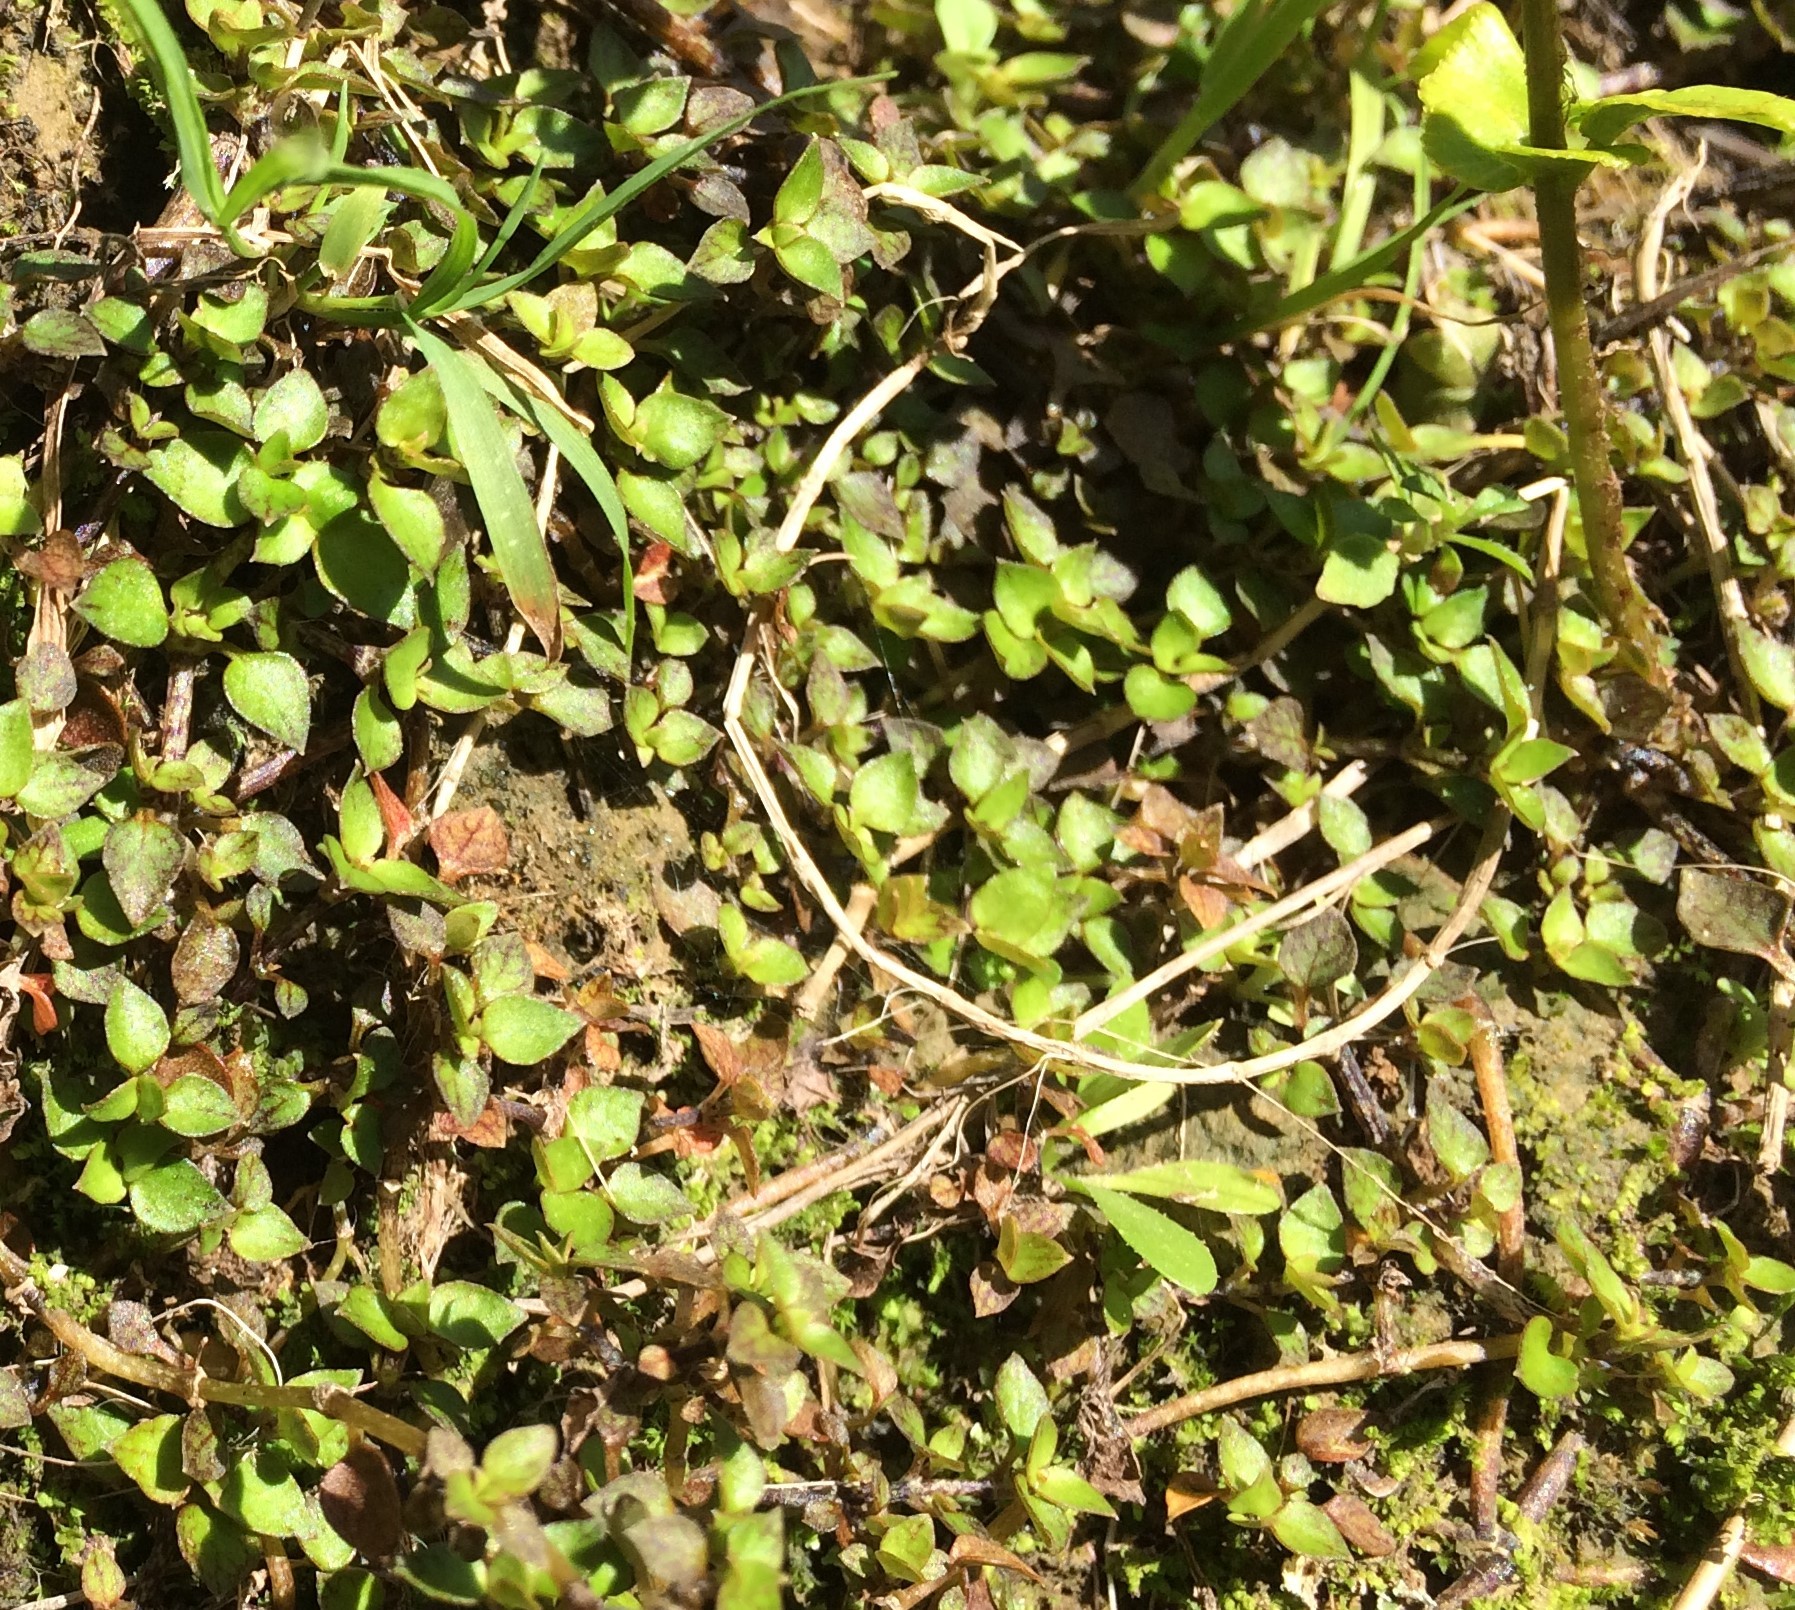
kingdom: Plantae
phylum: Tracheophyta
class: Magnoliopsida
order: Gentianales
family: Rubiaceae
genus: Nertera
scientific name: Nertera granadensis
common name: Beadplant
